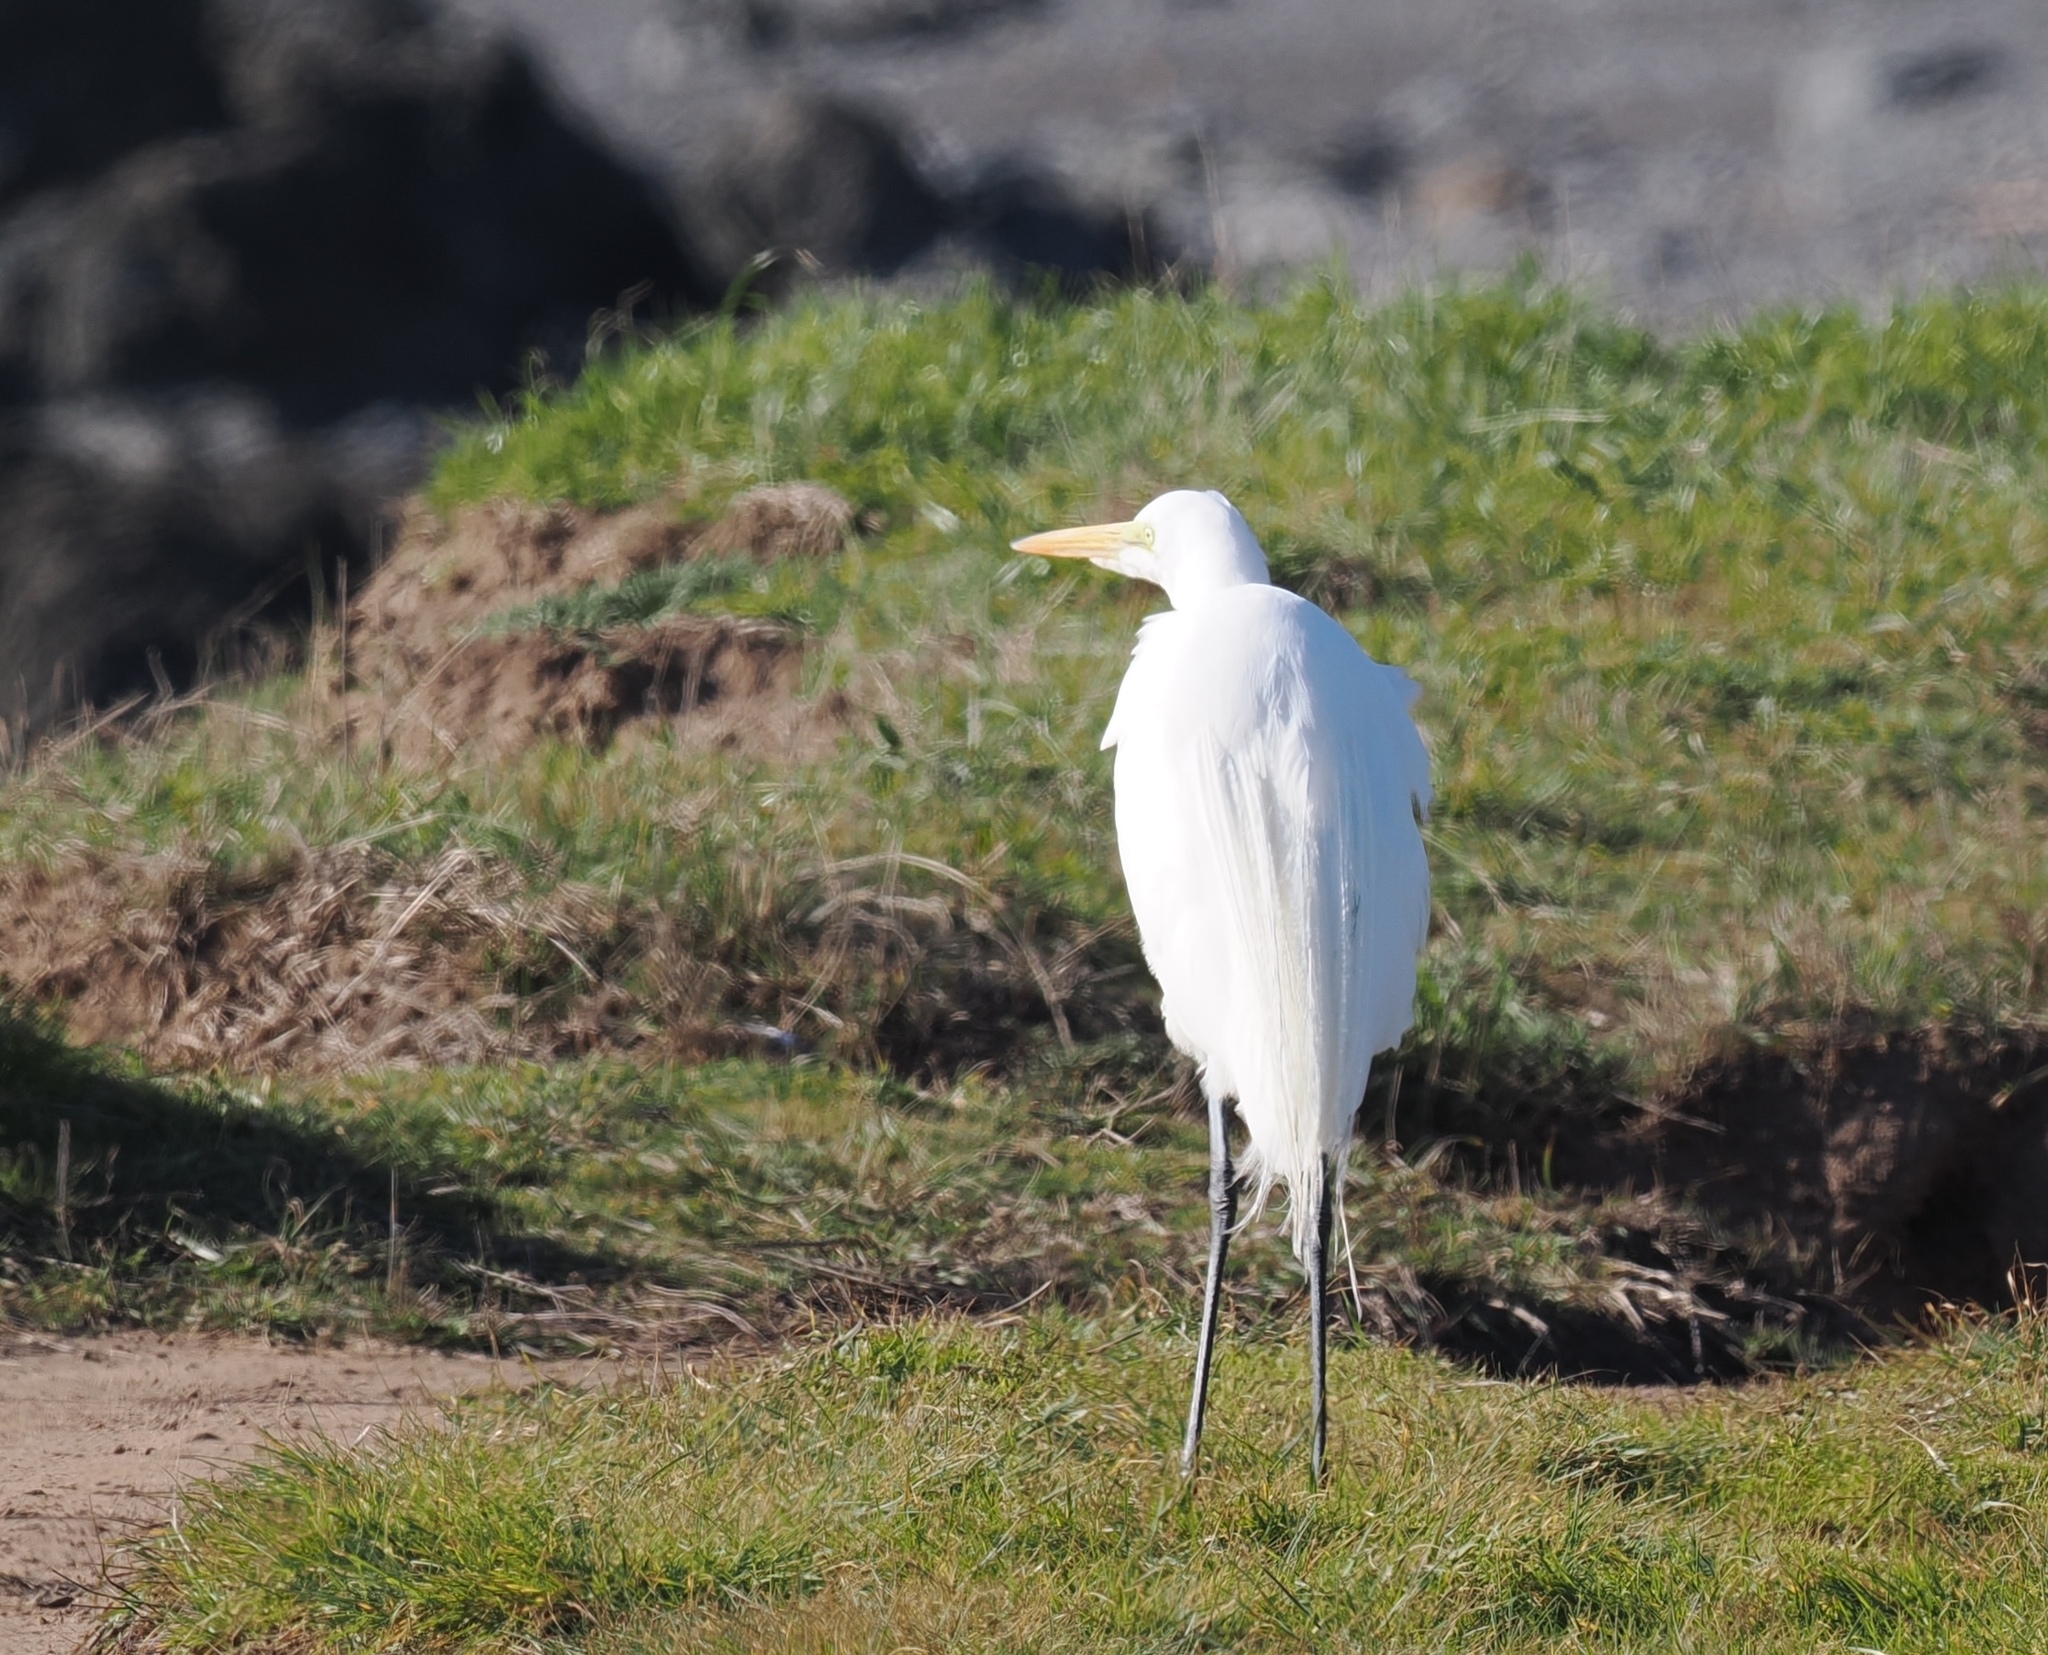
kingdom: Animalia
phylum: Chordata
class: Aves
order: Pelecaniformes
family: Ardeidae
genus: Ardea
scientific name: Ardea alba
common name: Great egret
